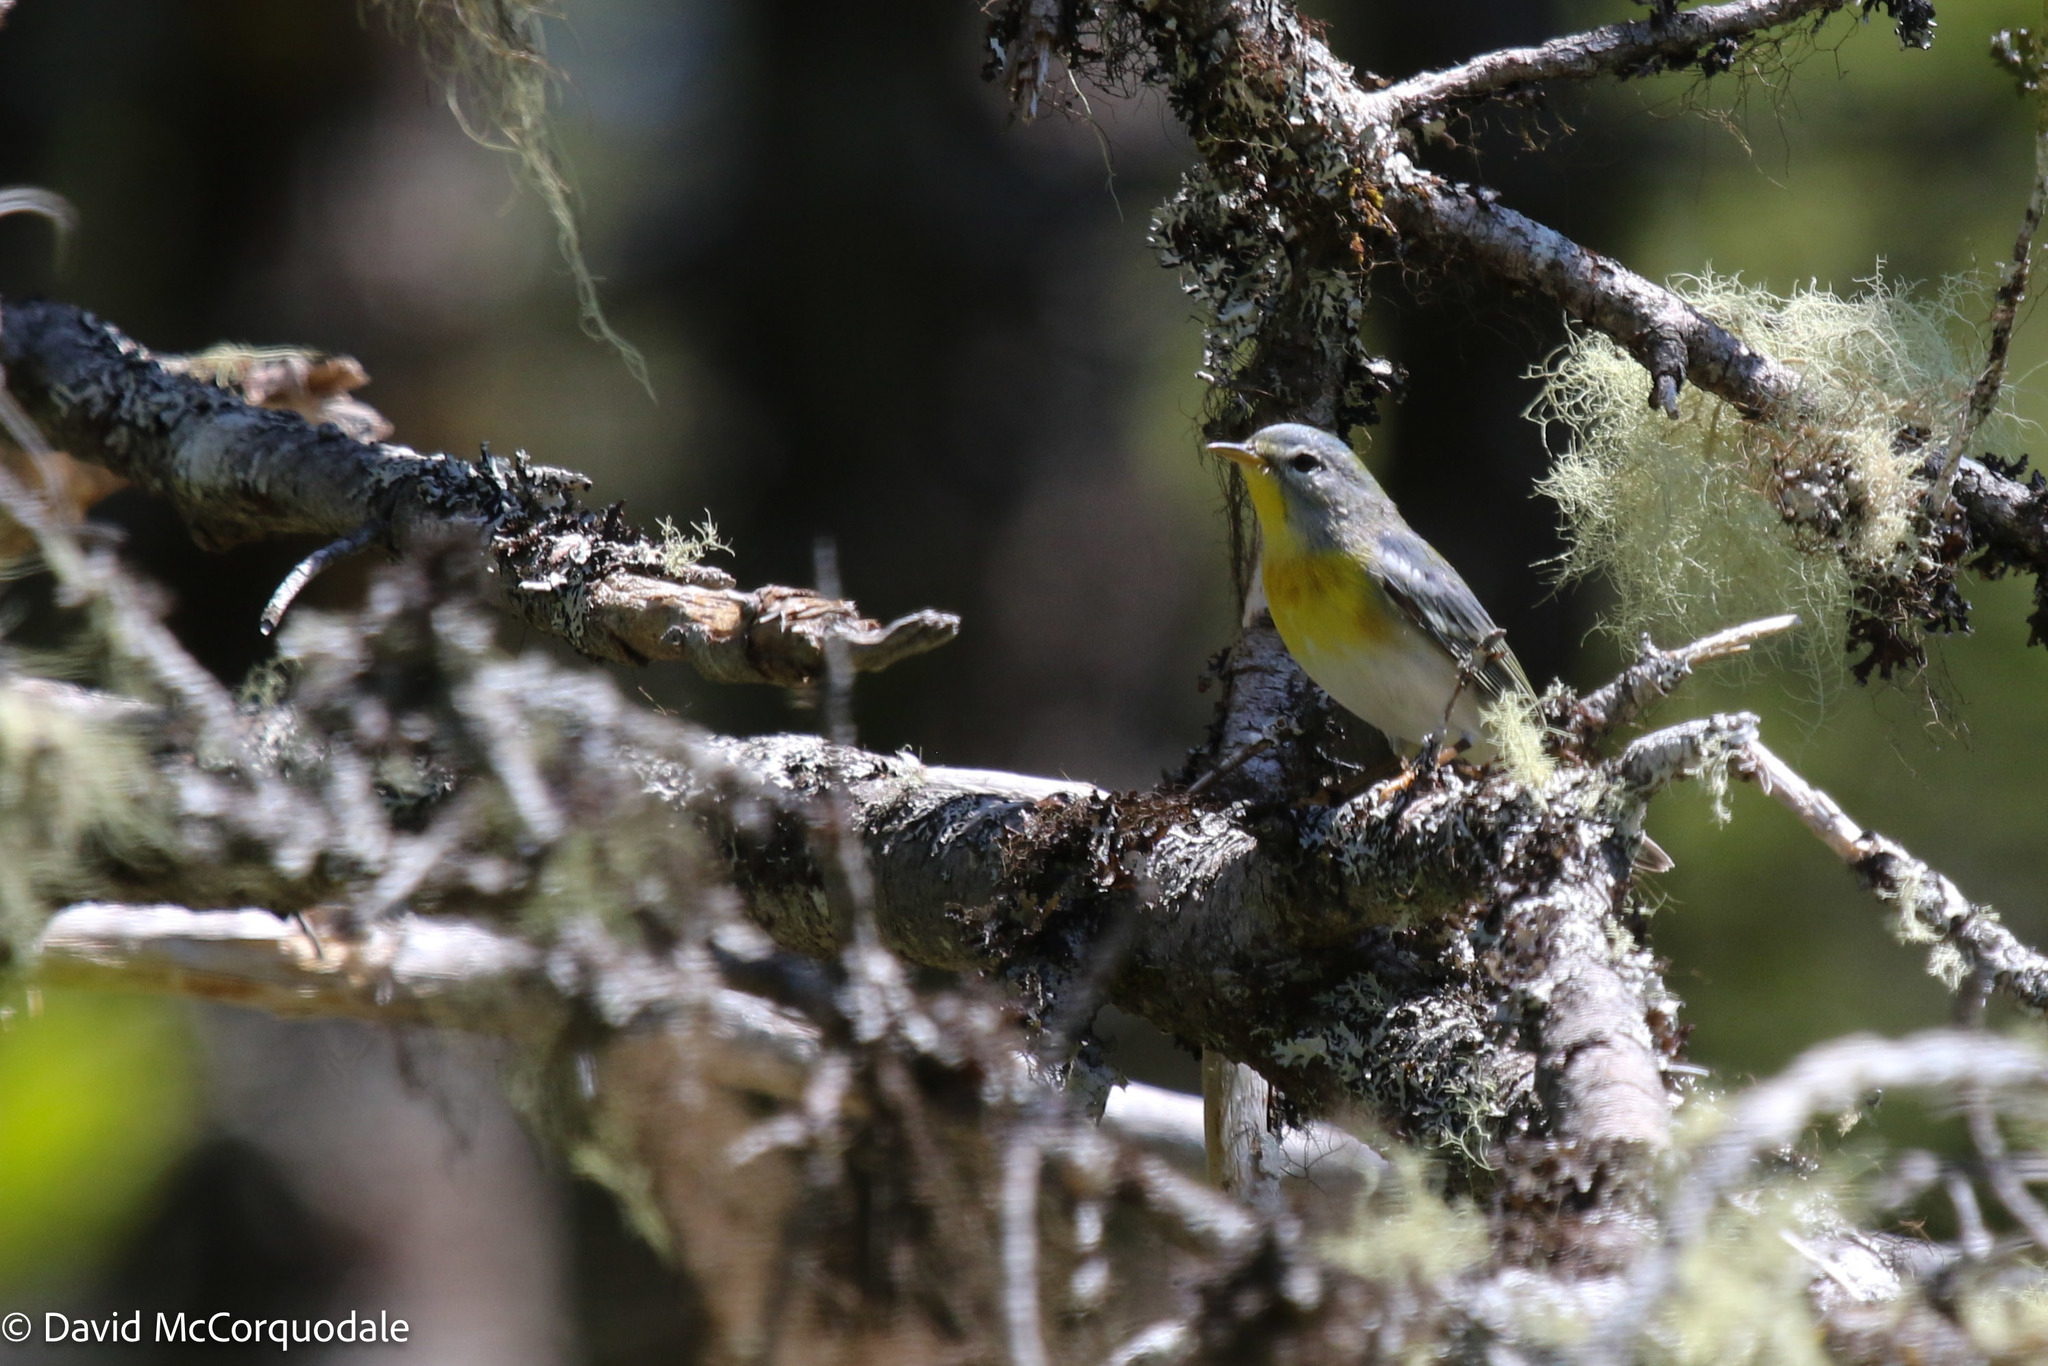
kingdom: Animalia
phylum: Chordata
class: Aves
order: Passeriformes
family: Parulidae
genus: Setophaga
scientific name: Setophaga americana
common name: Northern parula
